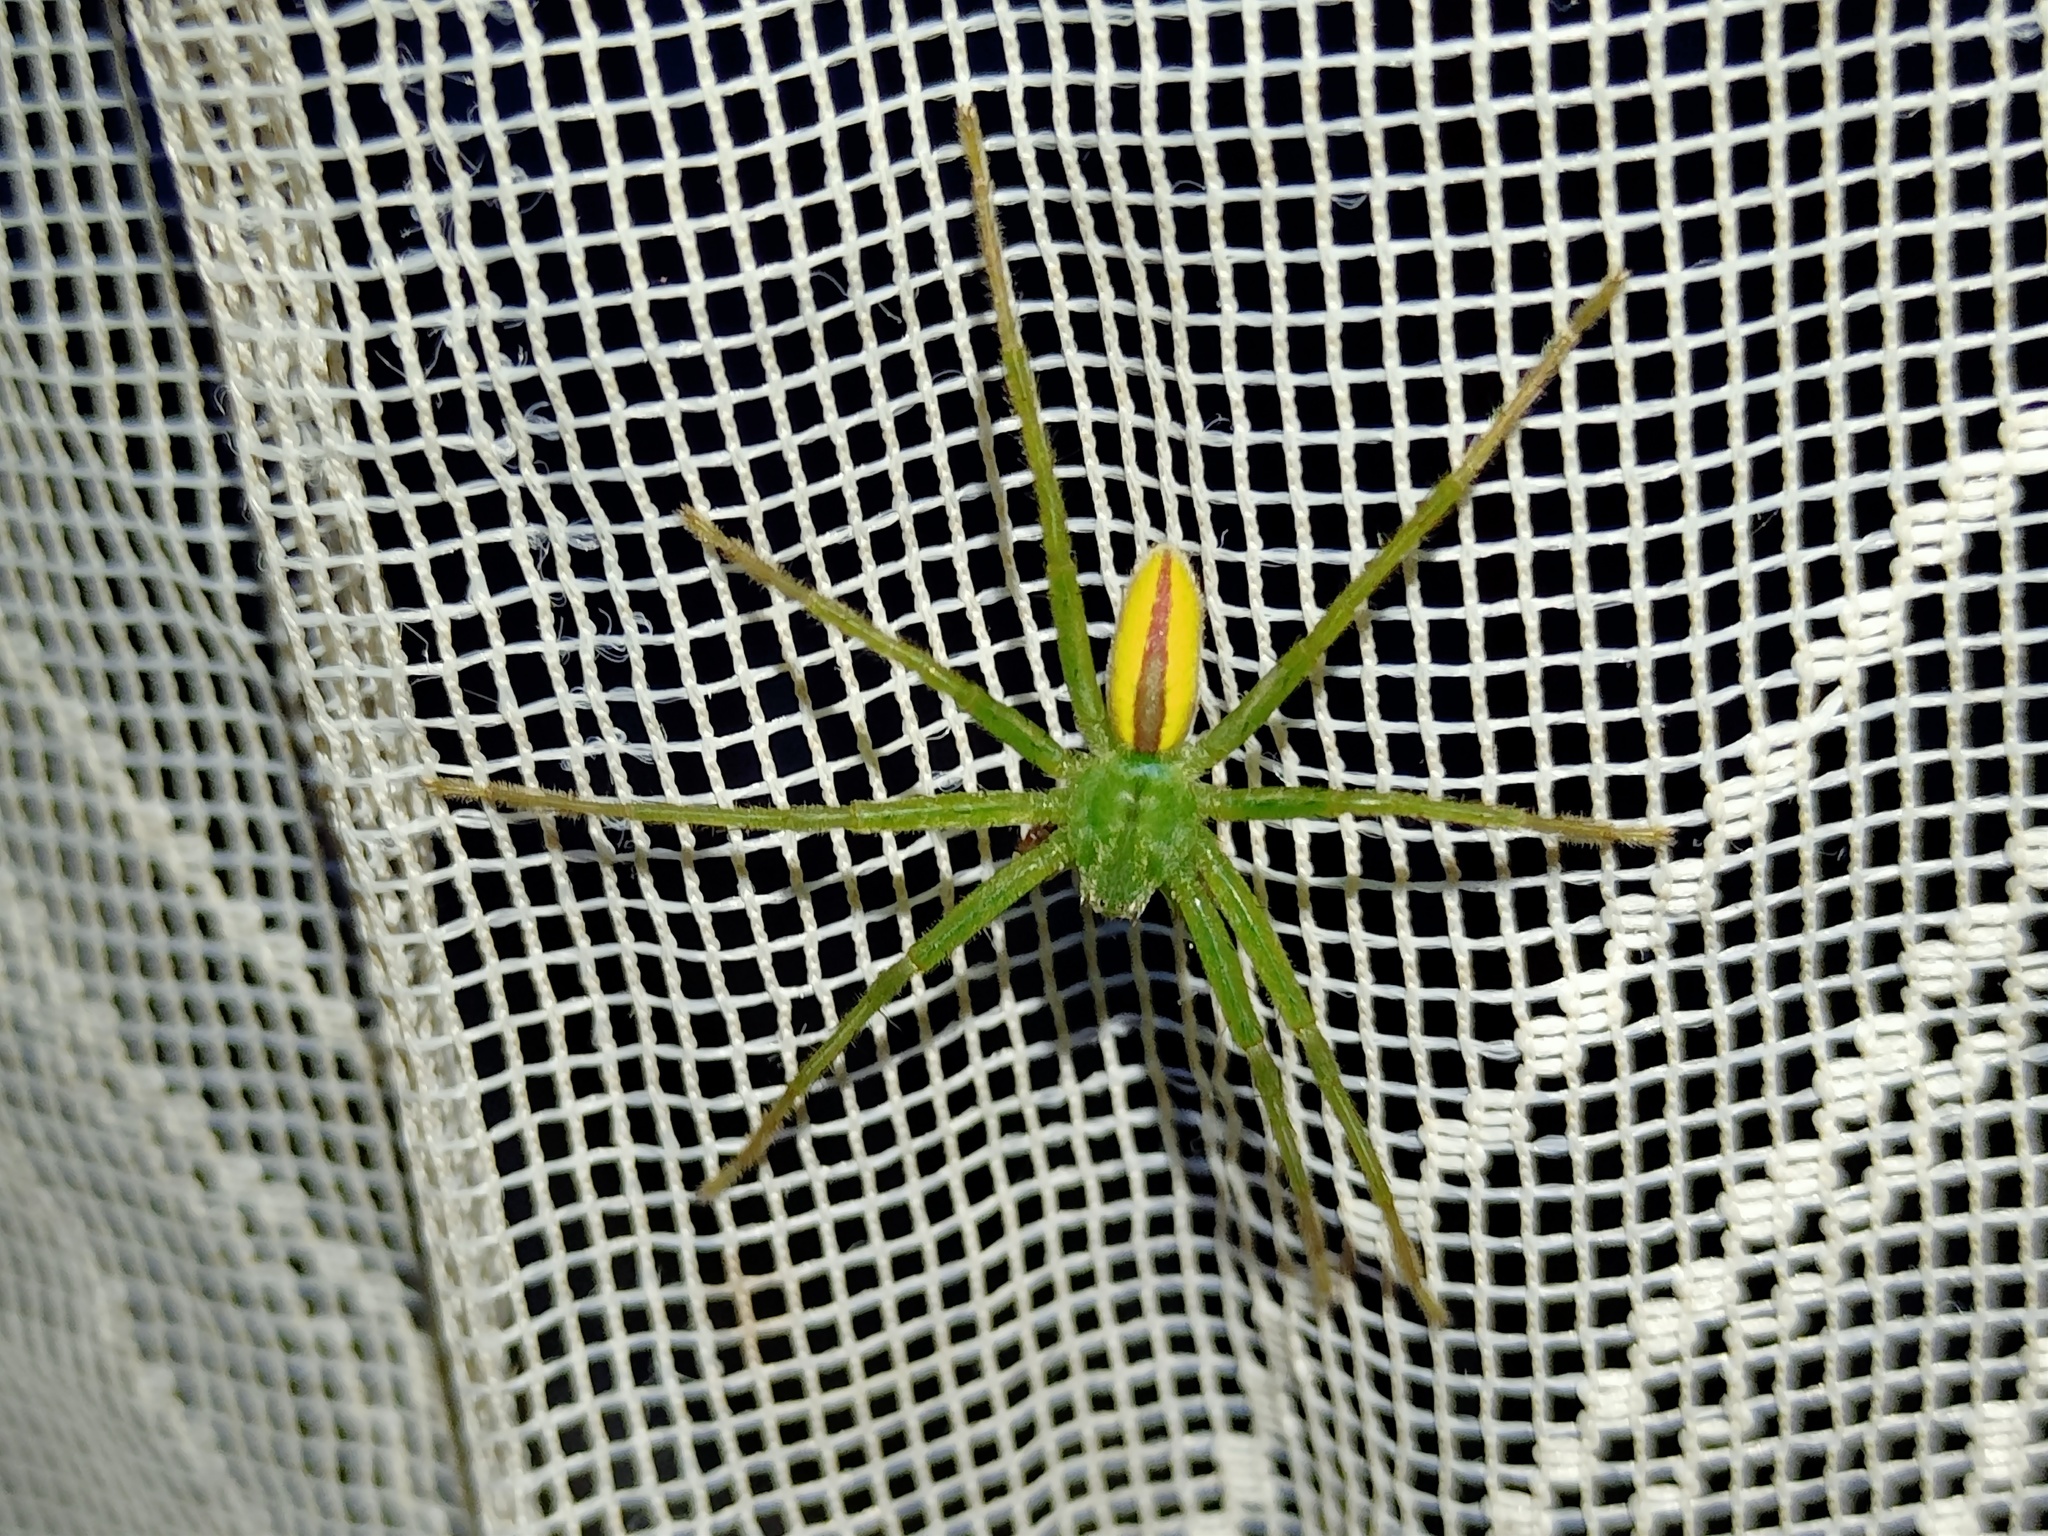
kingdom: Animalia
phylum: Arthropoda
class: Arachnida
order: Araneae
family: Sparassidae
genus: Micrommata
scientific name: Micrommata virescens
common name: Green spider
